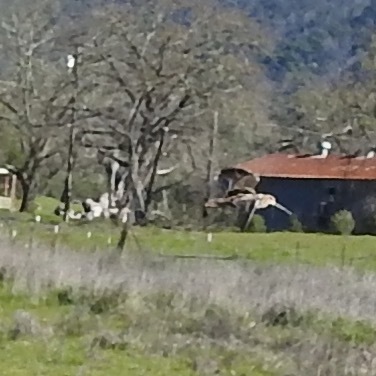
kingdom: Animalia
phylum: Chordata
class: Aves
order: Charadriiformes
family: Scolopacidae
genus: Gallinago
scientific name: Gallinago delicata
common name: Wilson's snipe
